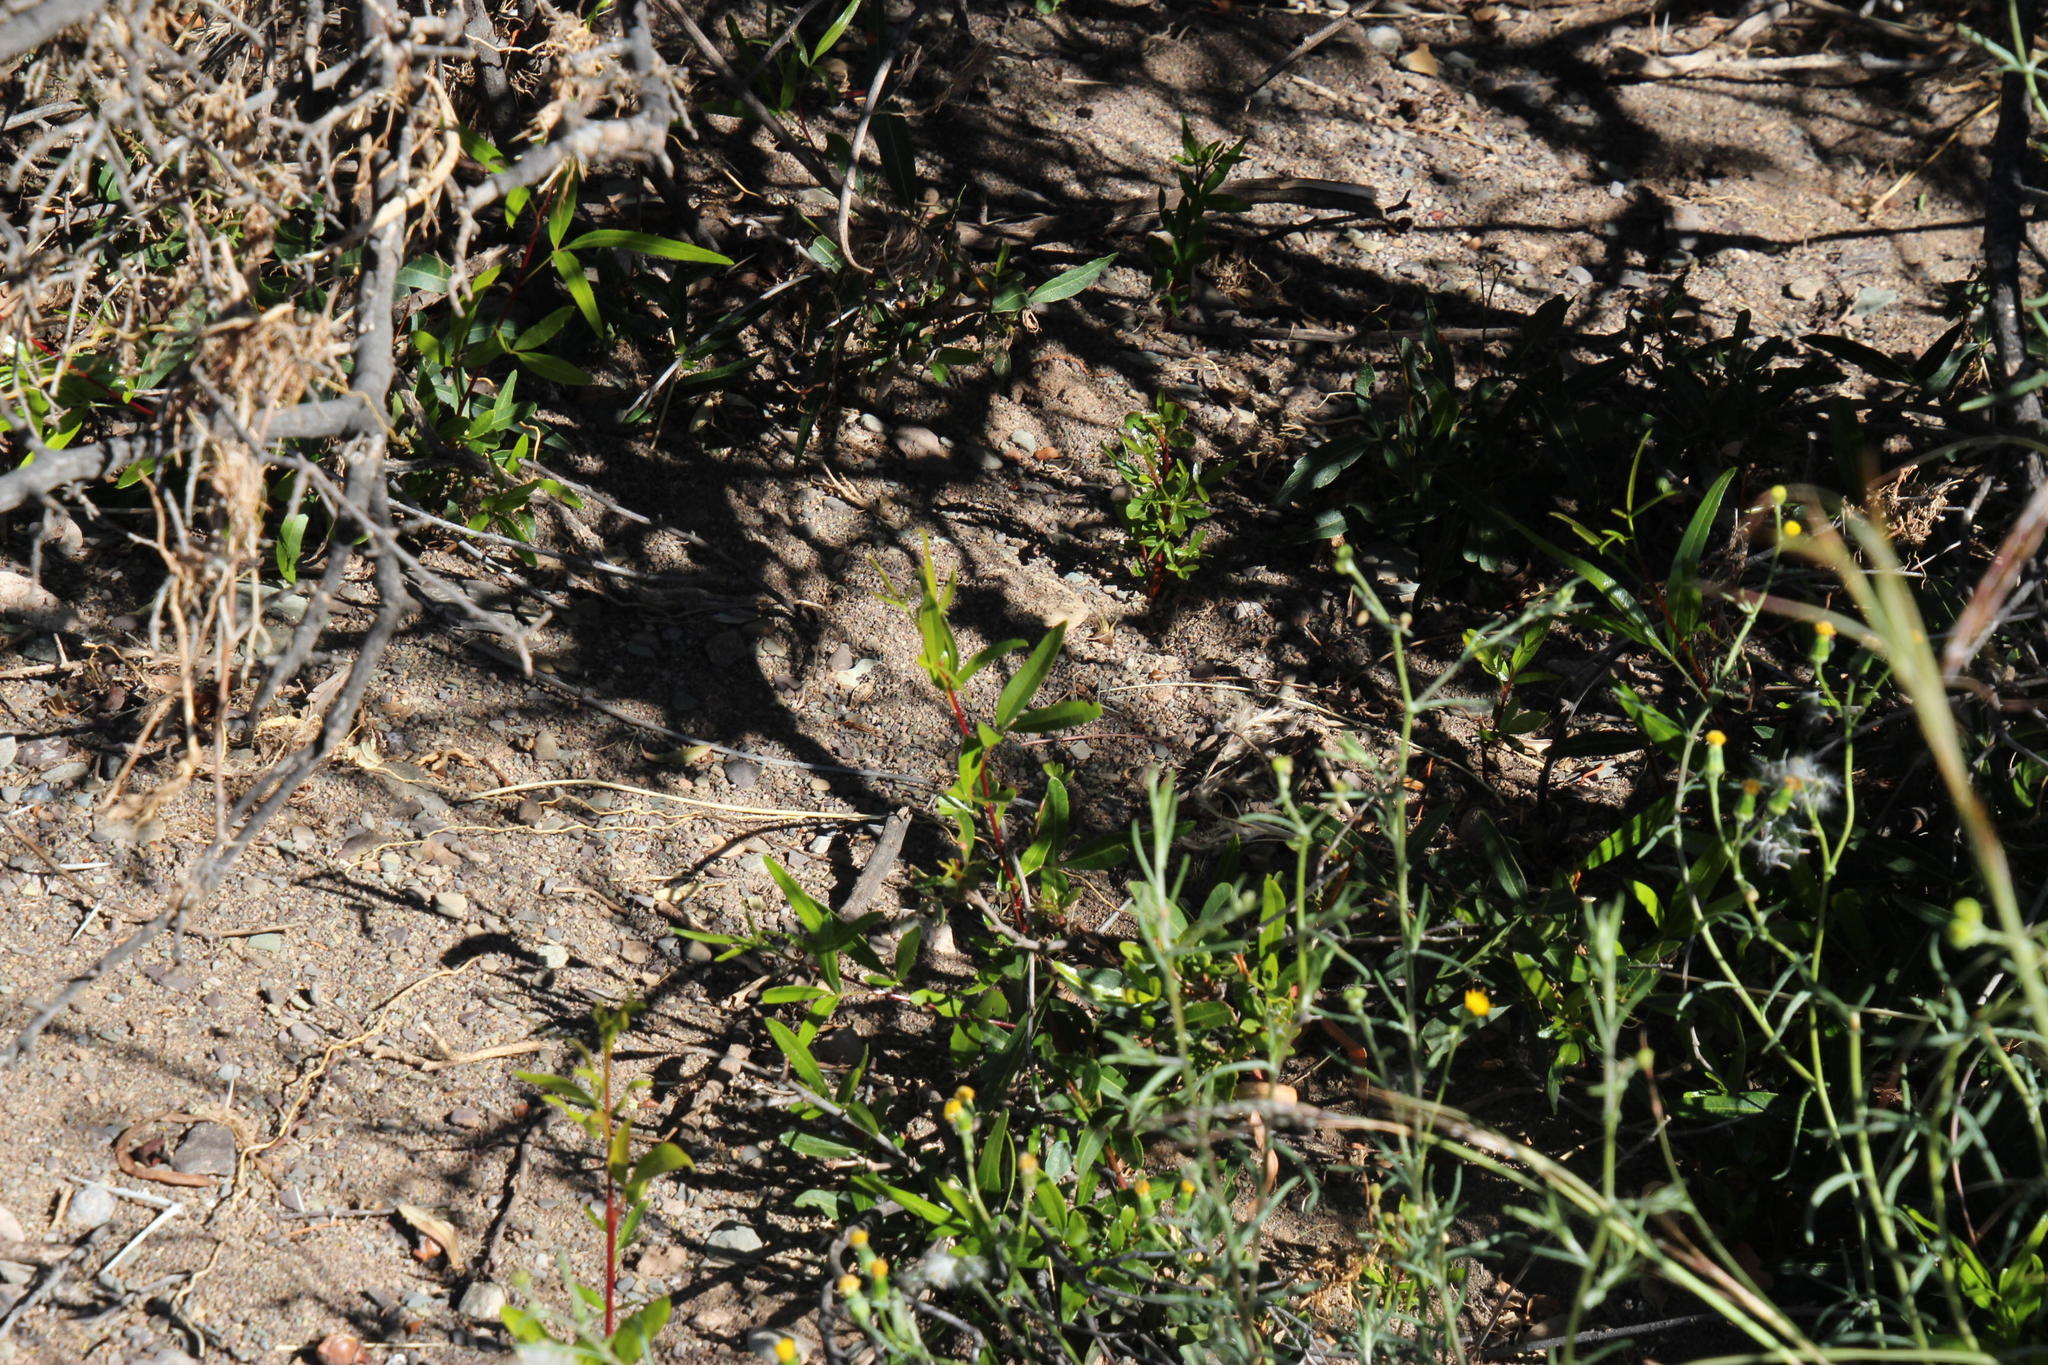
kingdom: Plantae
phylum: Tracheophyta
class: Magnoliopsida
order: Sapindales
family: Anacardiaceae
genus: Searsia
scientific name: Searsia lancea
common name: Cashew
